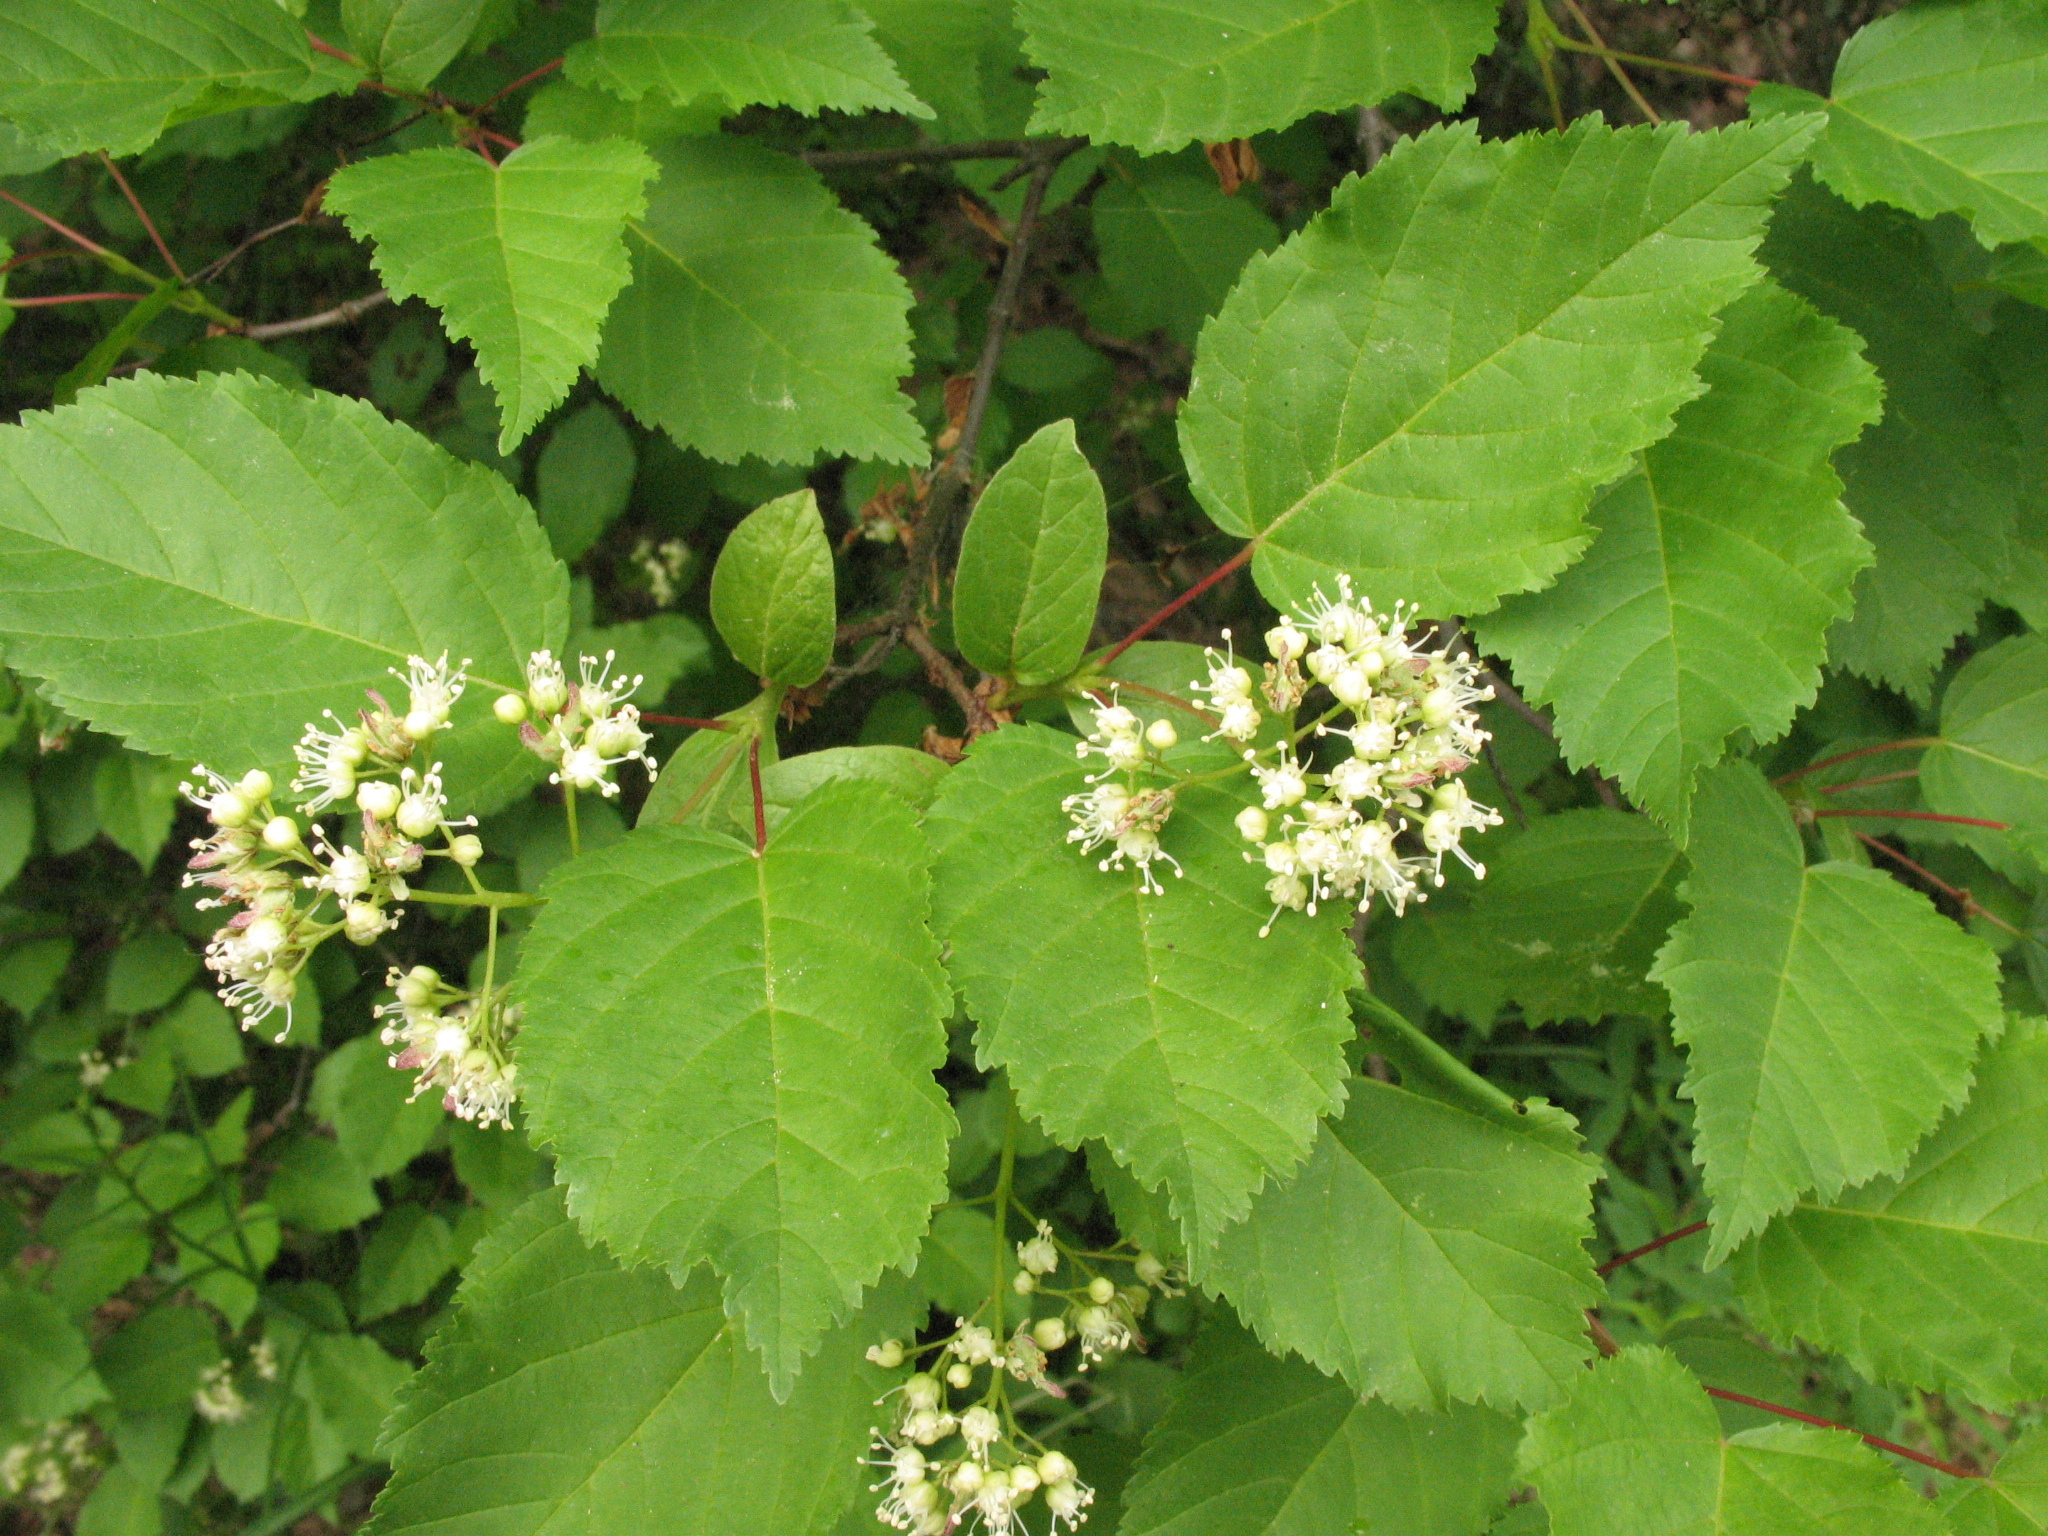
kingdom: Plantae
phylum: Tracheophyta
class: Magnoliopsida
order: Sapindales
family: Sapindaceae
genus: Acer
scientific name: Acer tataricum
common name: Tartar maple
